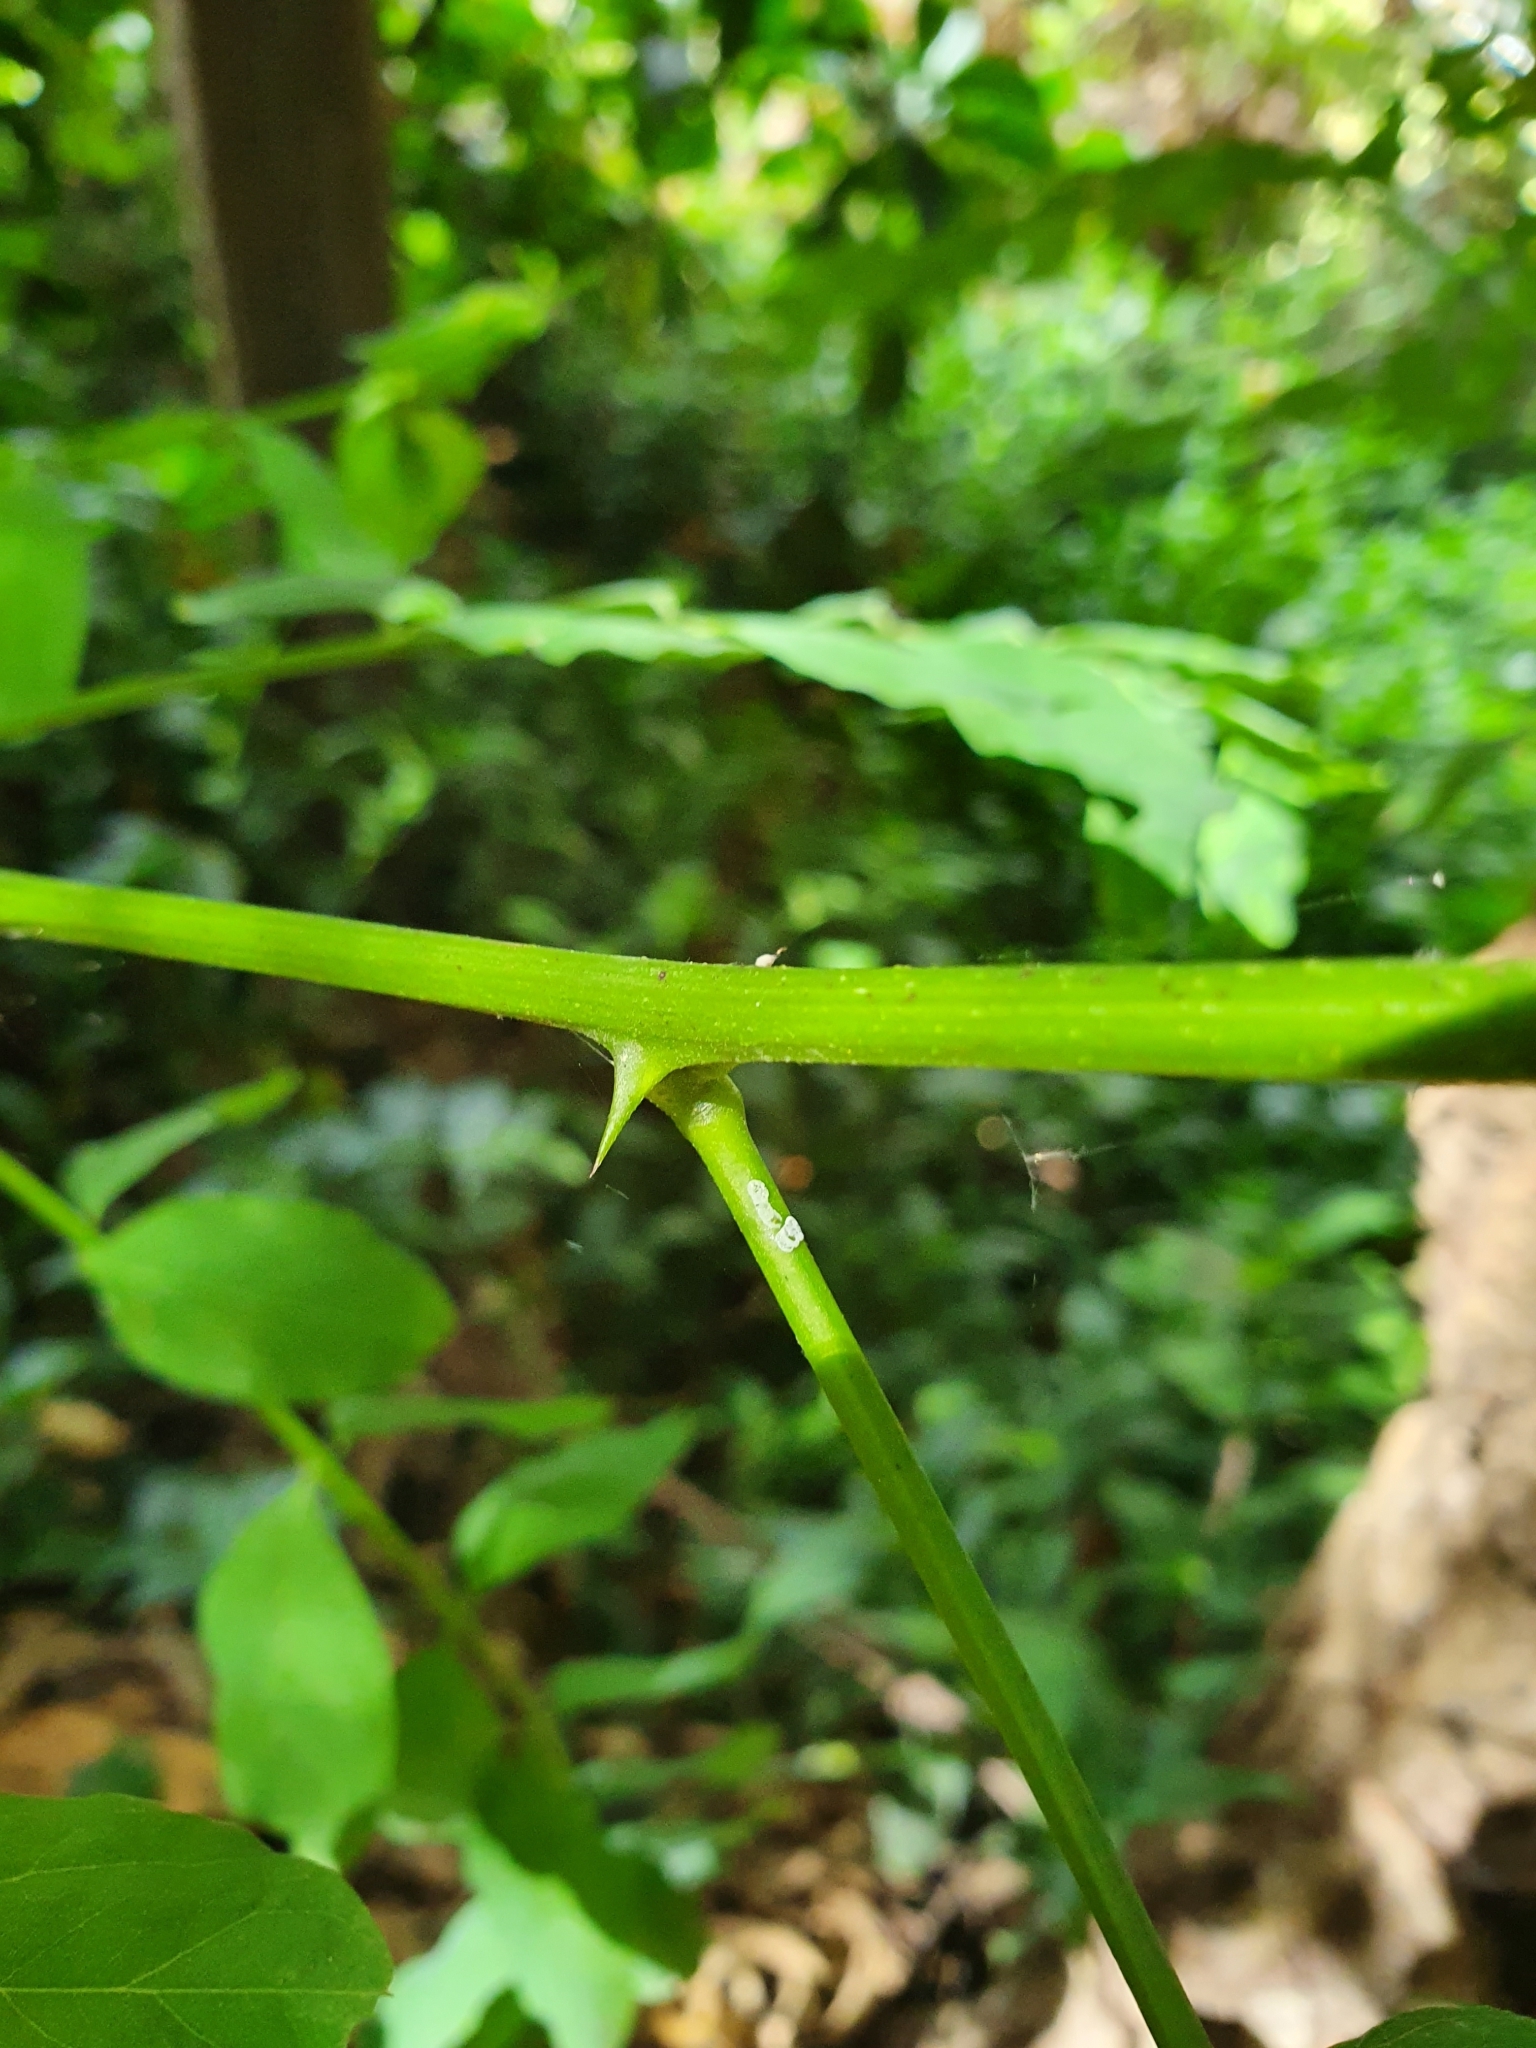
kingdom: Plantae
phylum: Tracheophyta
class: Magnoliopsida
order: Fabales
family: Fabaceae
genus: Robinia
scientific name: Robinia pseudoacacia
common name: Black locust
